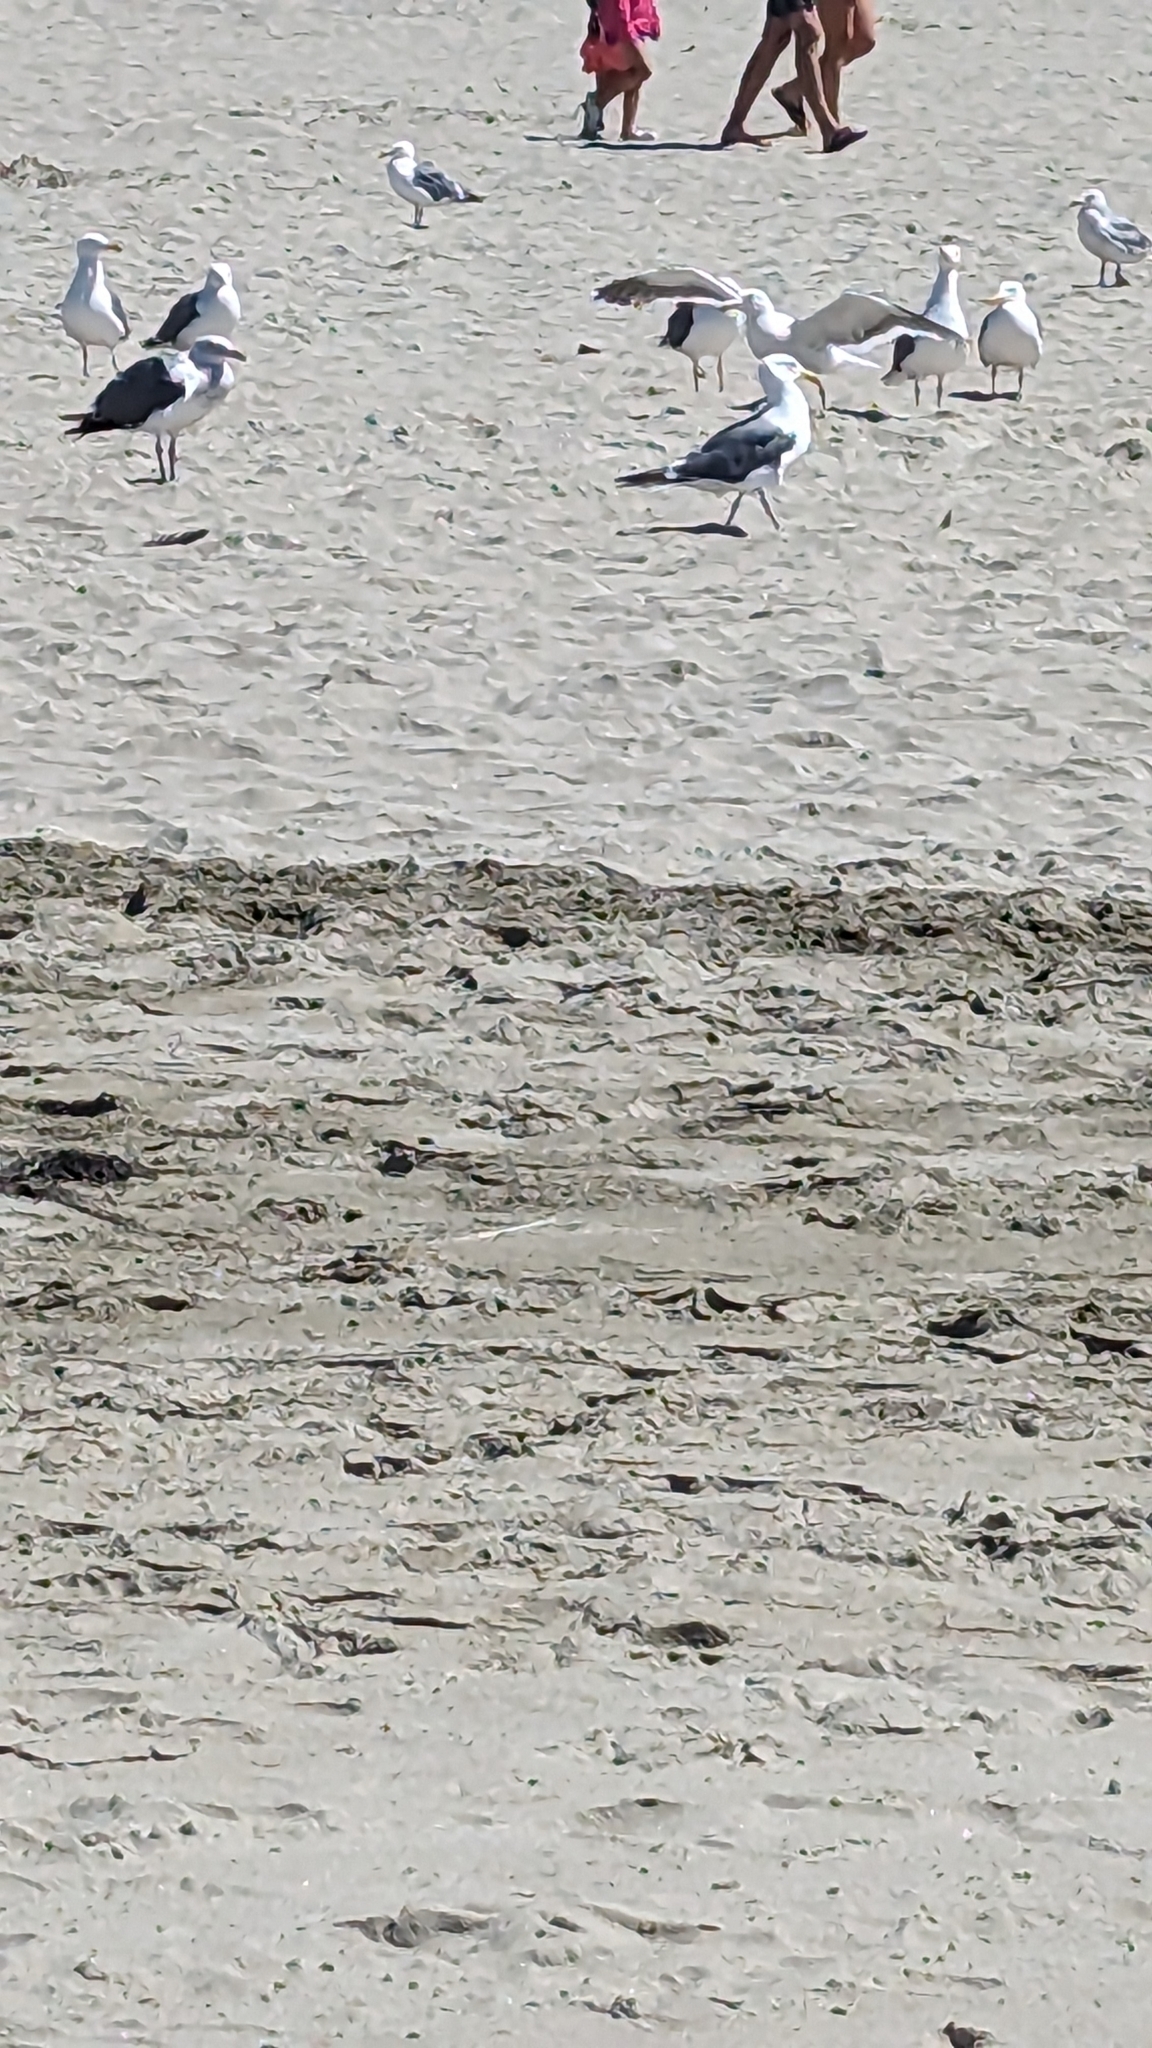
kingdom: Animalia
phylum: Chordata
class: Aves
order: Charadriiformes
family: Laridae
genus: Larus
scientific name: Larus occidentalis
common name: Western gull
